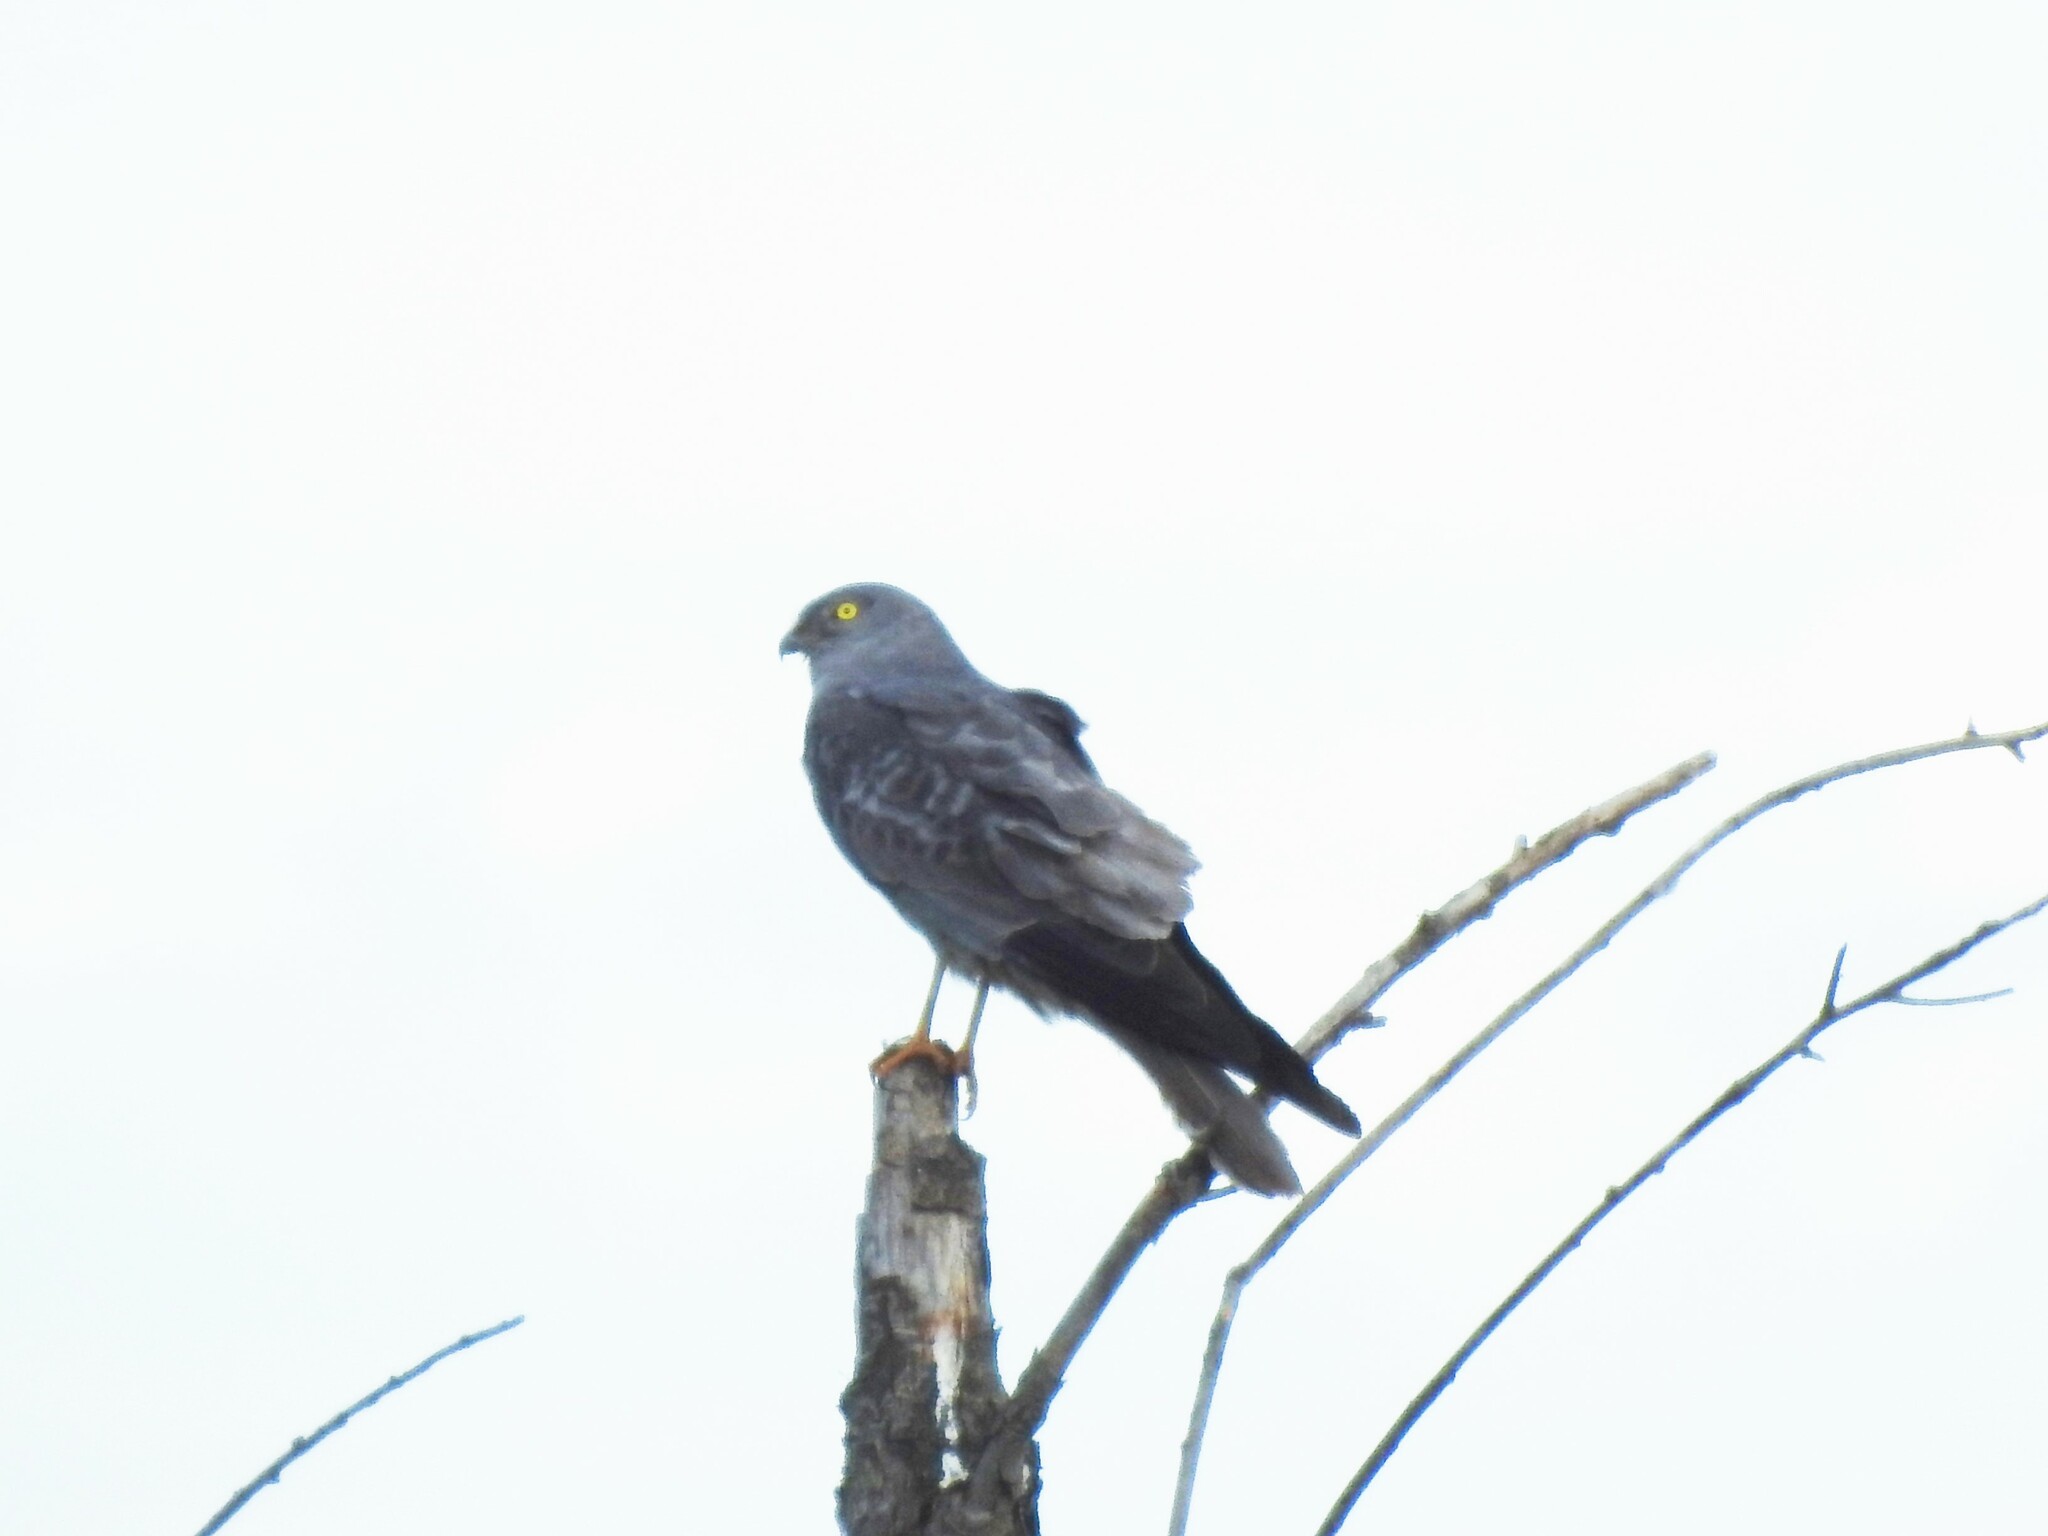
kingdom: Animalia
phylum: Chordata
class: Aves
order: Accipitriformes
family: Accipitridae
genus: Circus
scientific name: Circus pygargus
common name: Montagu's harrier
